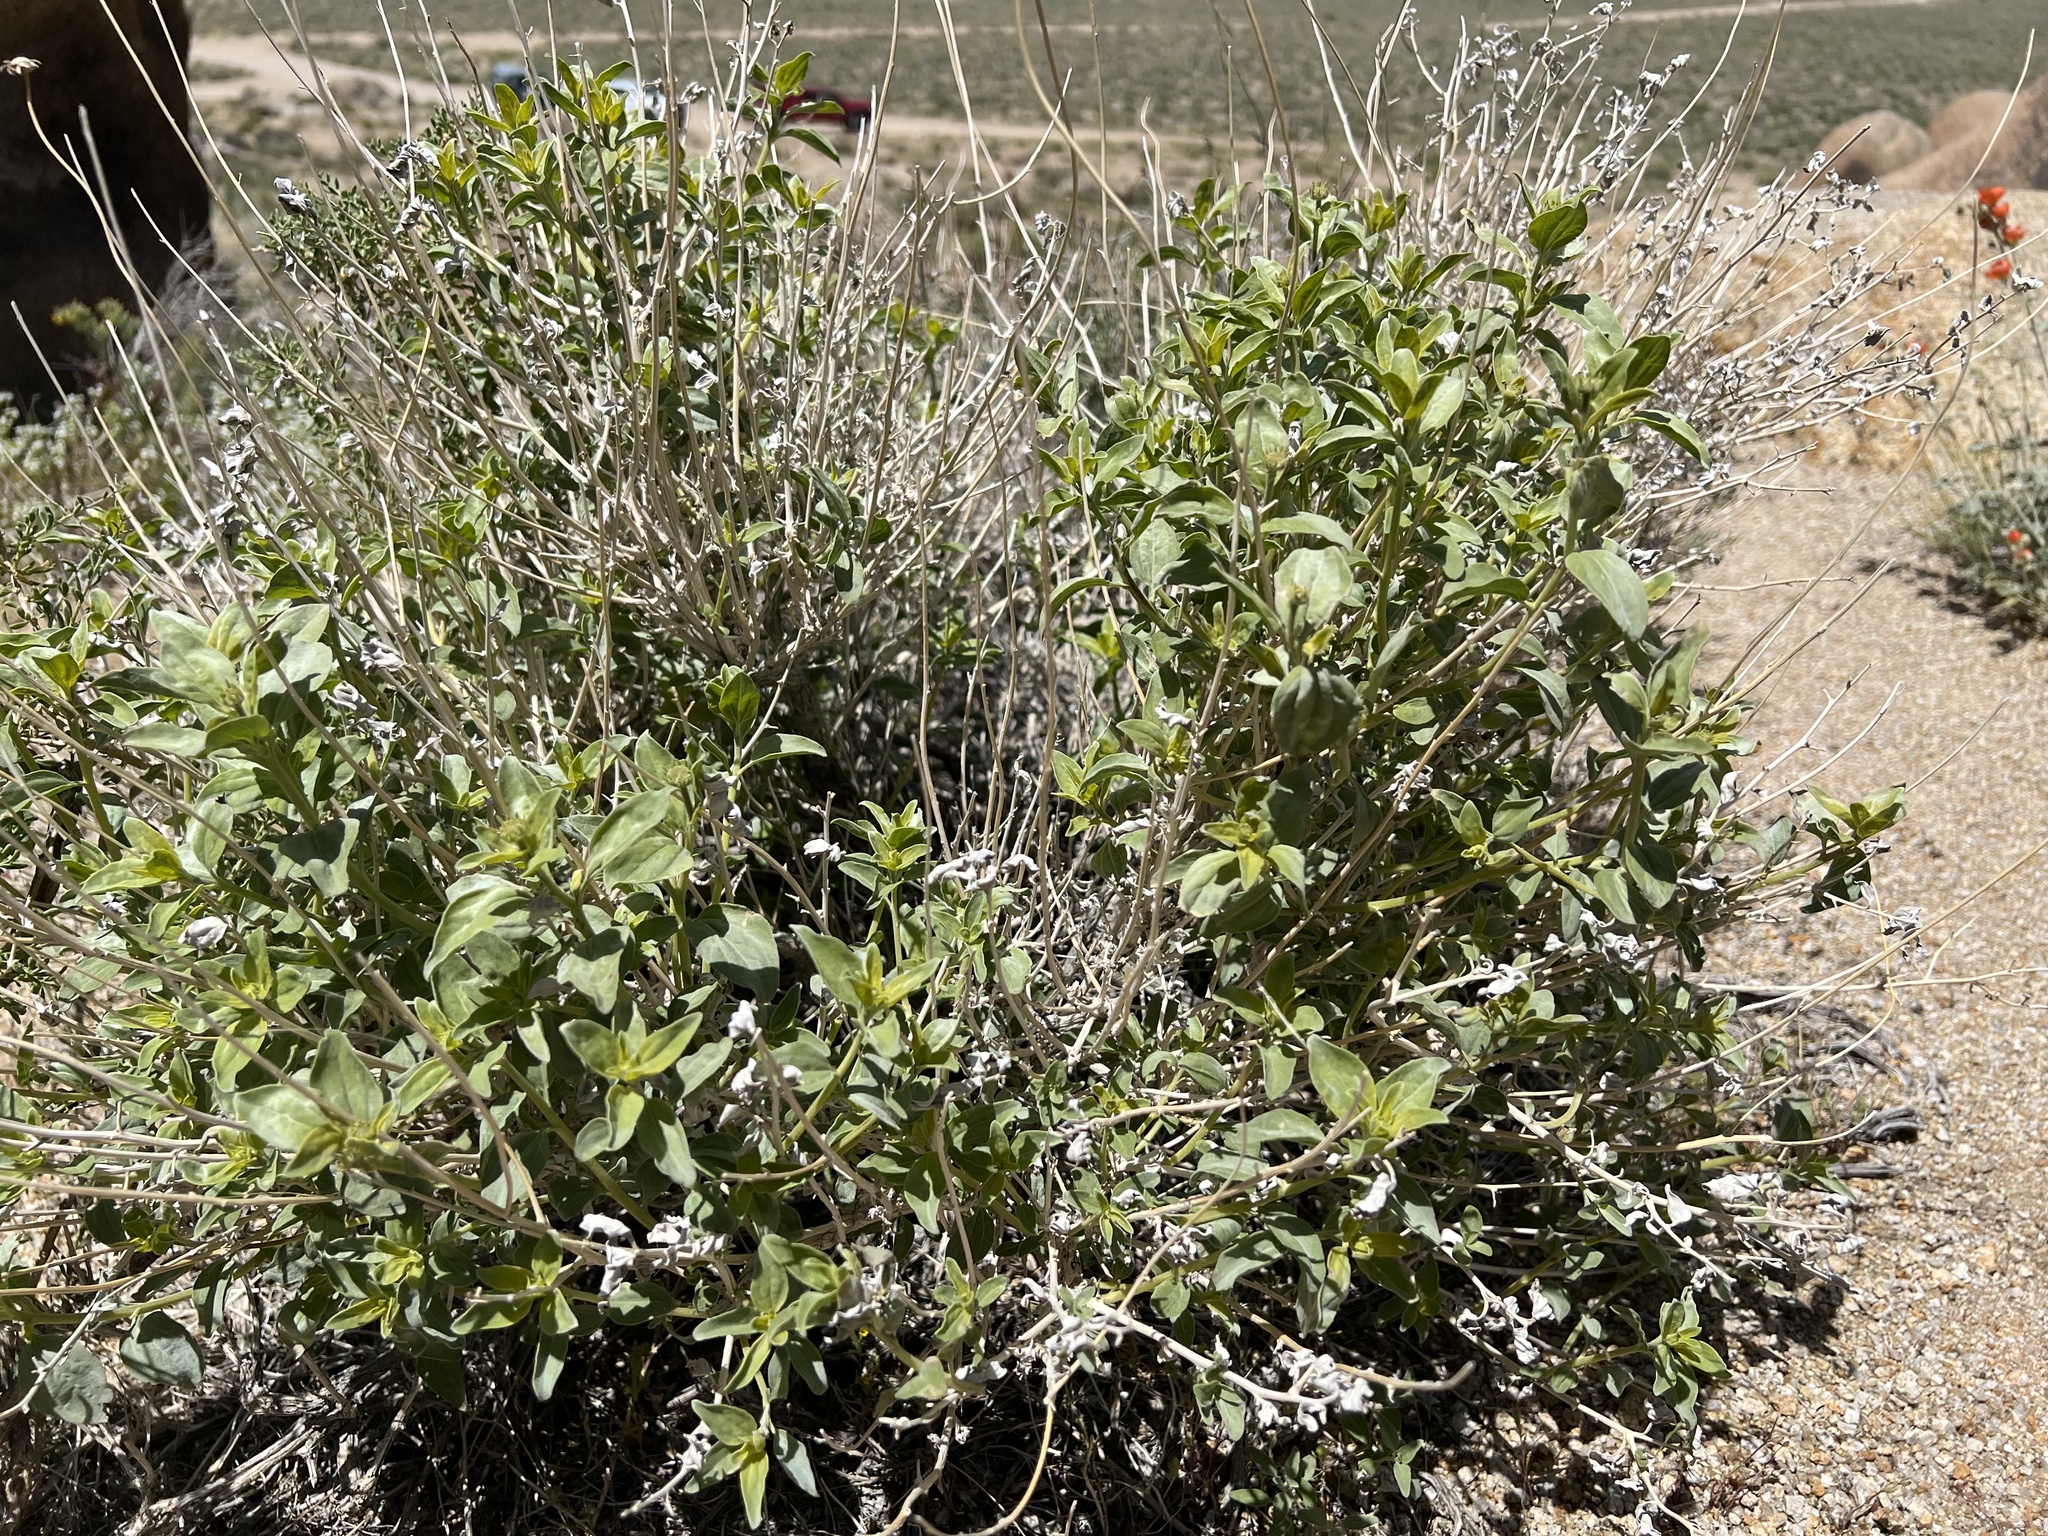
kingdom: Plantae
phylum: Tracheophyta
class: Magnoliopsida
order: Asterales
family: Asteraceae
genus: Encelia
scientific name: Encelia actoni
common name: Acton encelia
